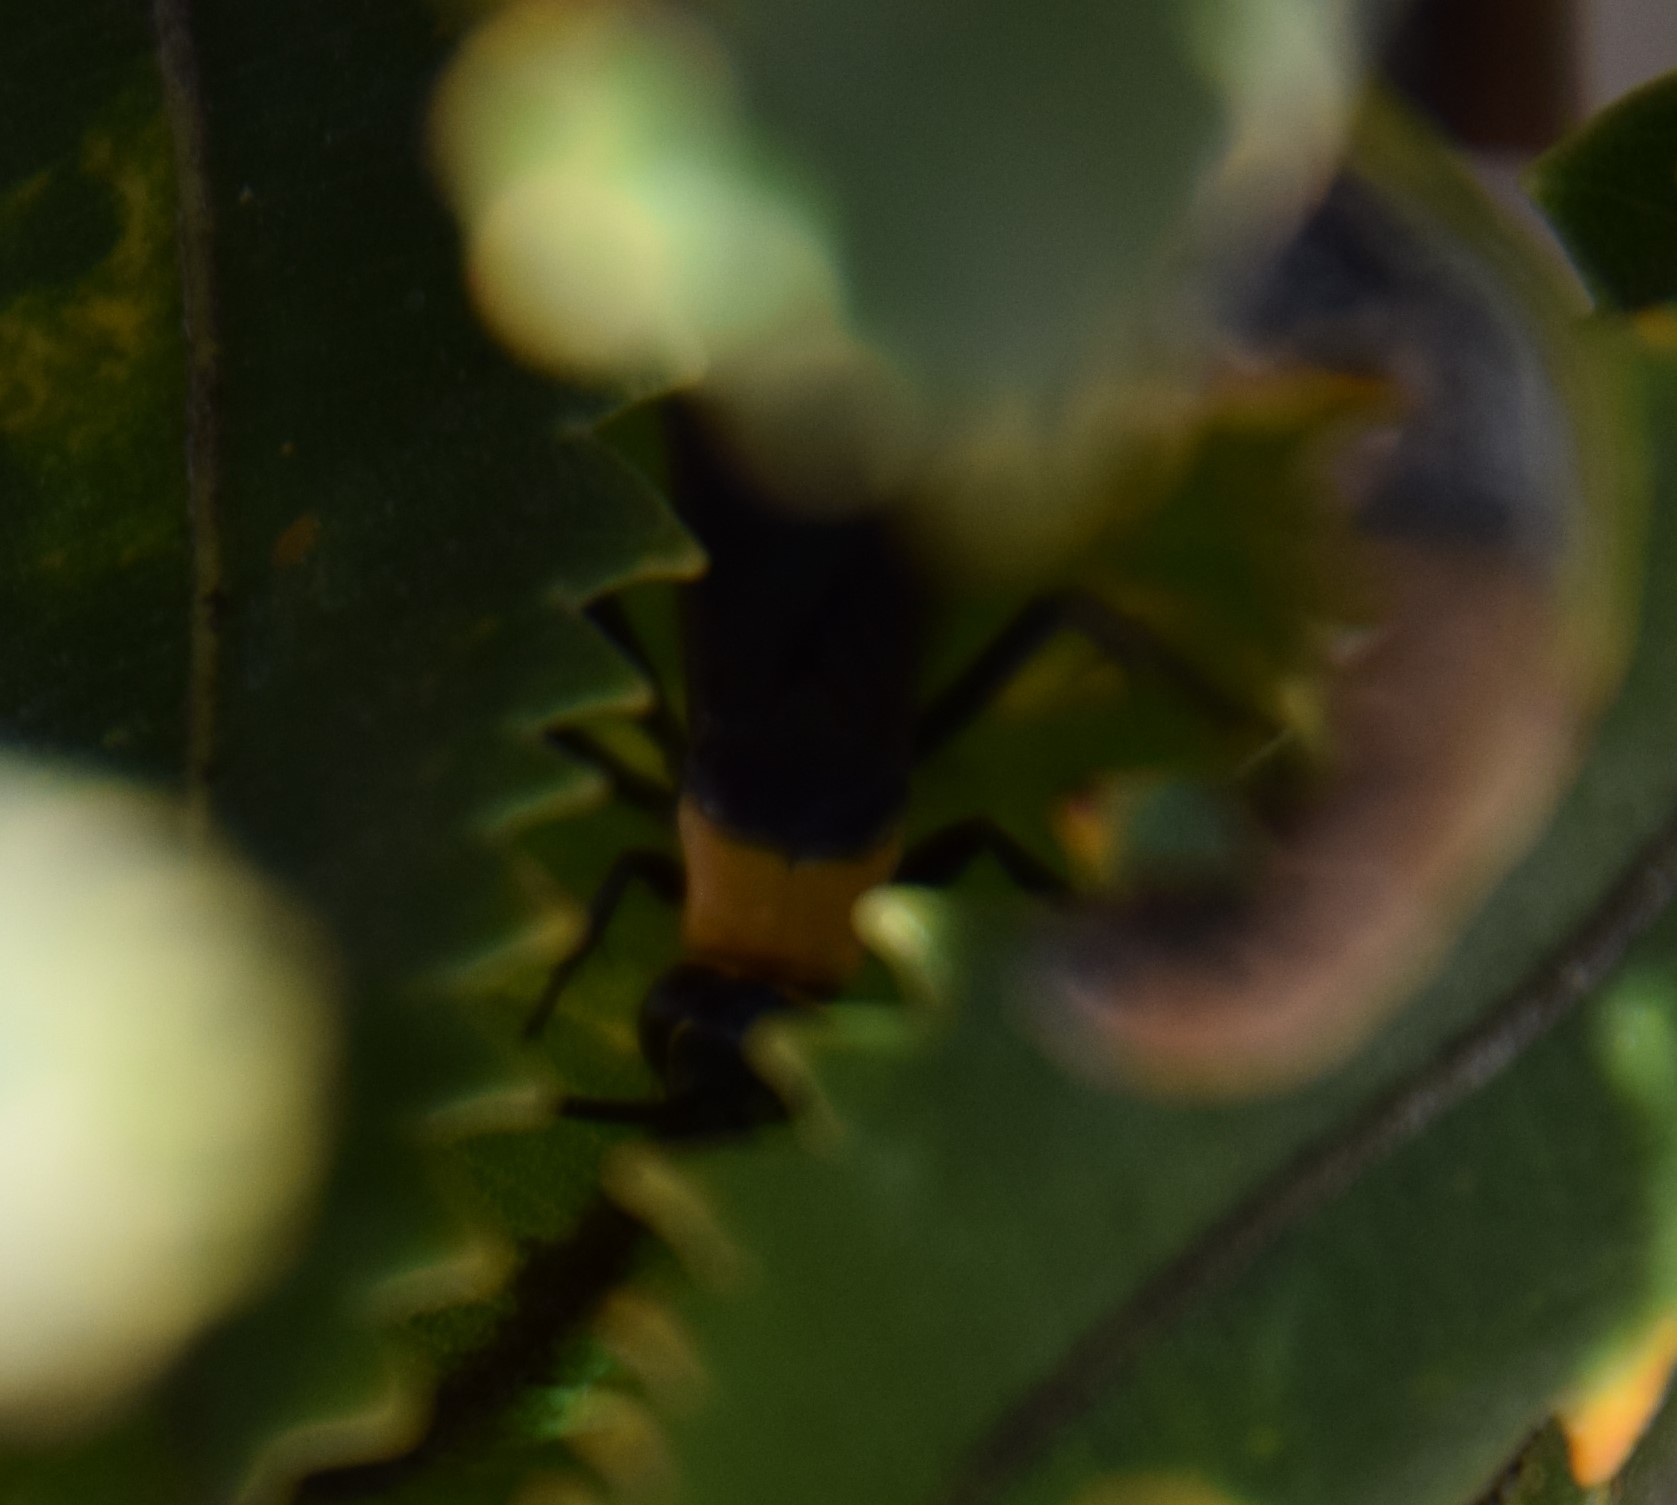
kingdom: Animalia
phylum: Arthropoda
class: Insecta
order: Hymenoptera
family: Pompilidae
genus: Ferreola
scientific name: Ferreola handschini
